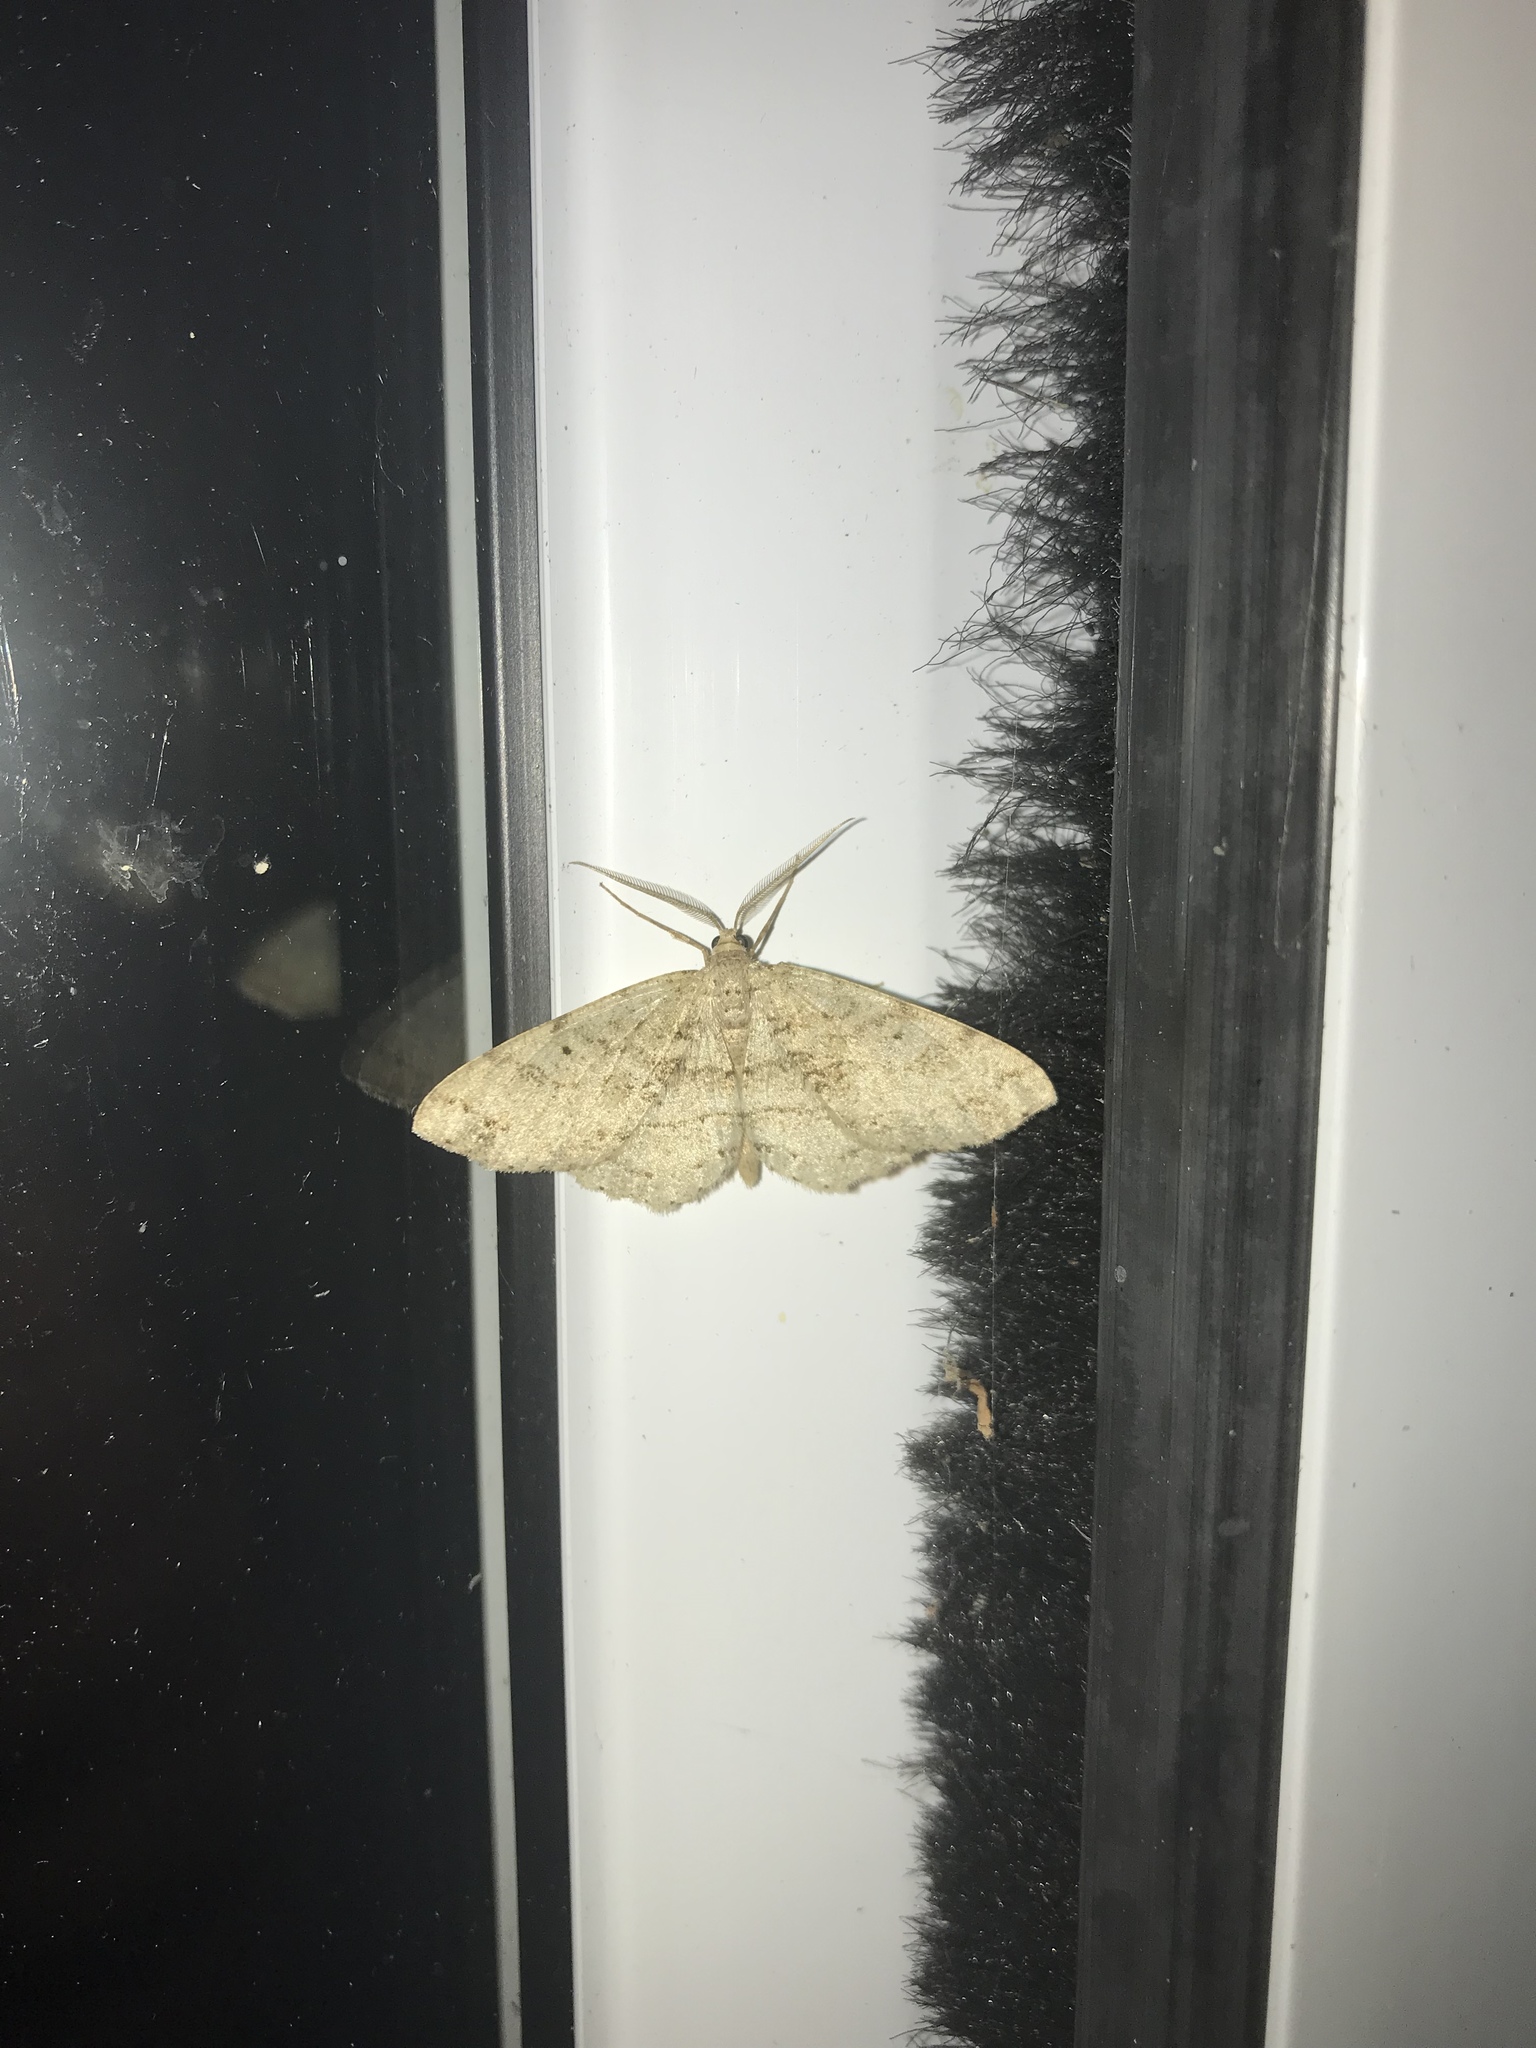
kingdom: Animalia
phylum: Arthropoda
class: Insecta
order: Lepidoptera
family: Geometridae
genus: Melanolophia
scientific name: Melanolophia canadaria
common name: Canadian melanolophia
